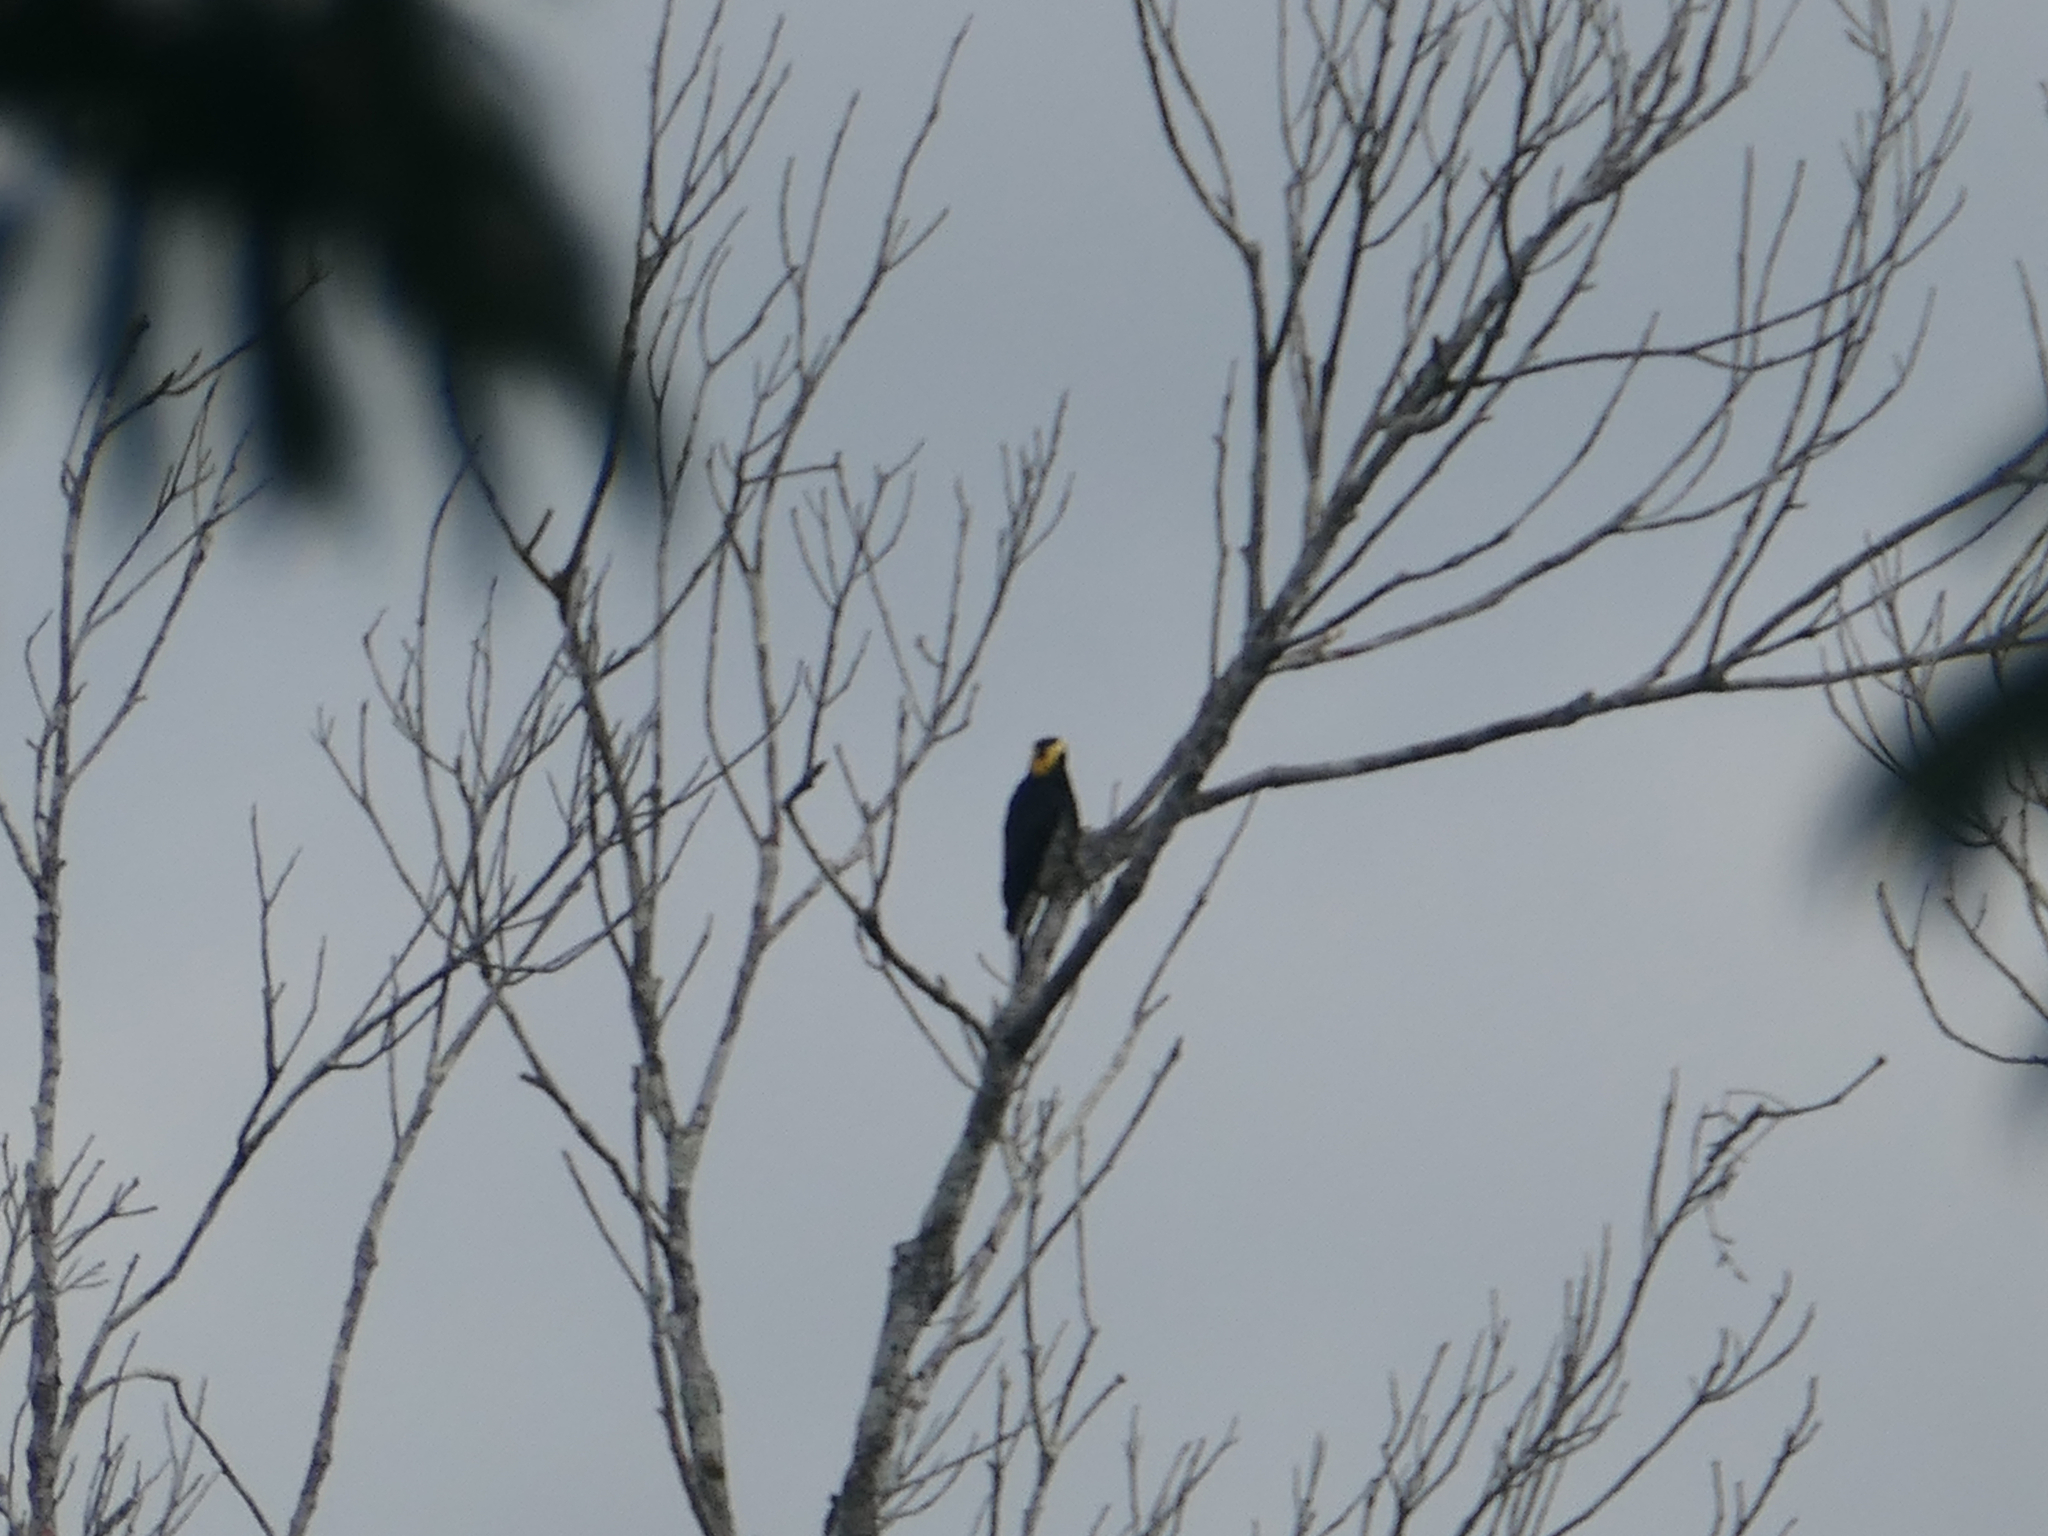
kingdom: Animalia
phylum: Chordata
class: Aves
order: Piciformes
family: Picidae
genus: Melanerpes
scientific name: Melanerpes cruentatus
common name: Yellow-tufted woodpecker
